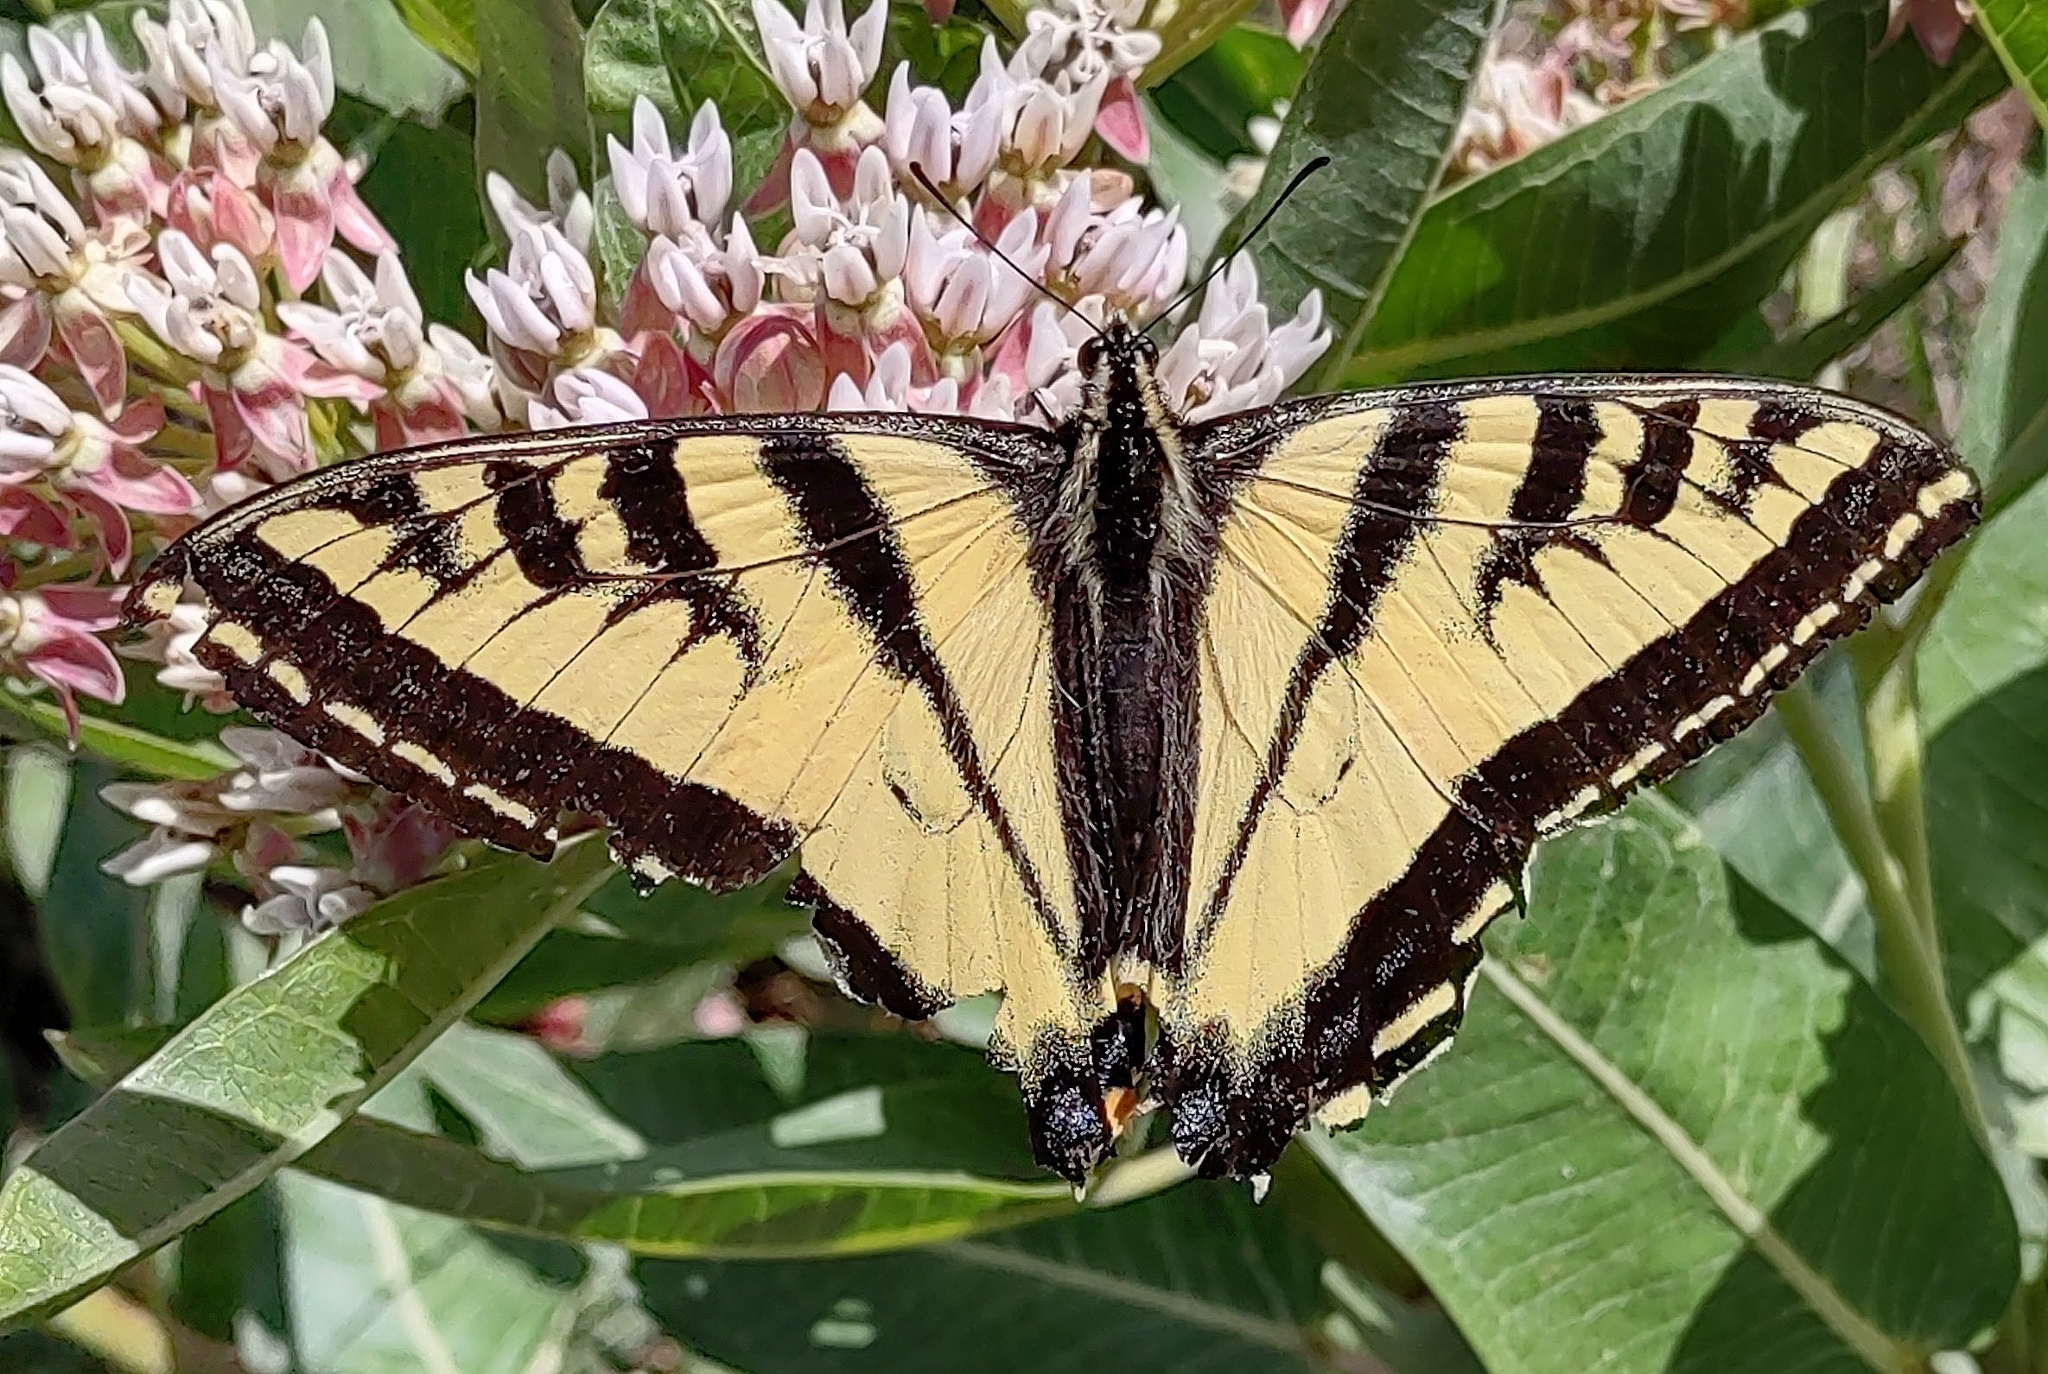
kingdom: Animalia
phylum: Arthropoda
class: Insecta
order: Lepidoptera
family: Papilionidae
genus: Papilio
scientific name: Papilio rutulus
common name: Western tiger swallowtail
